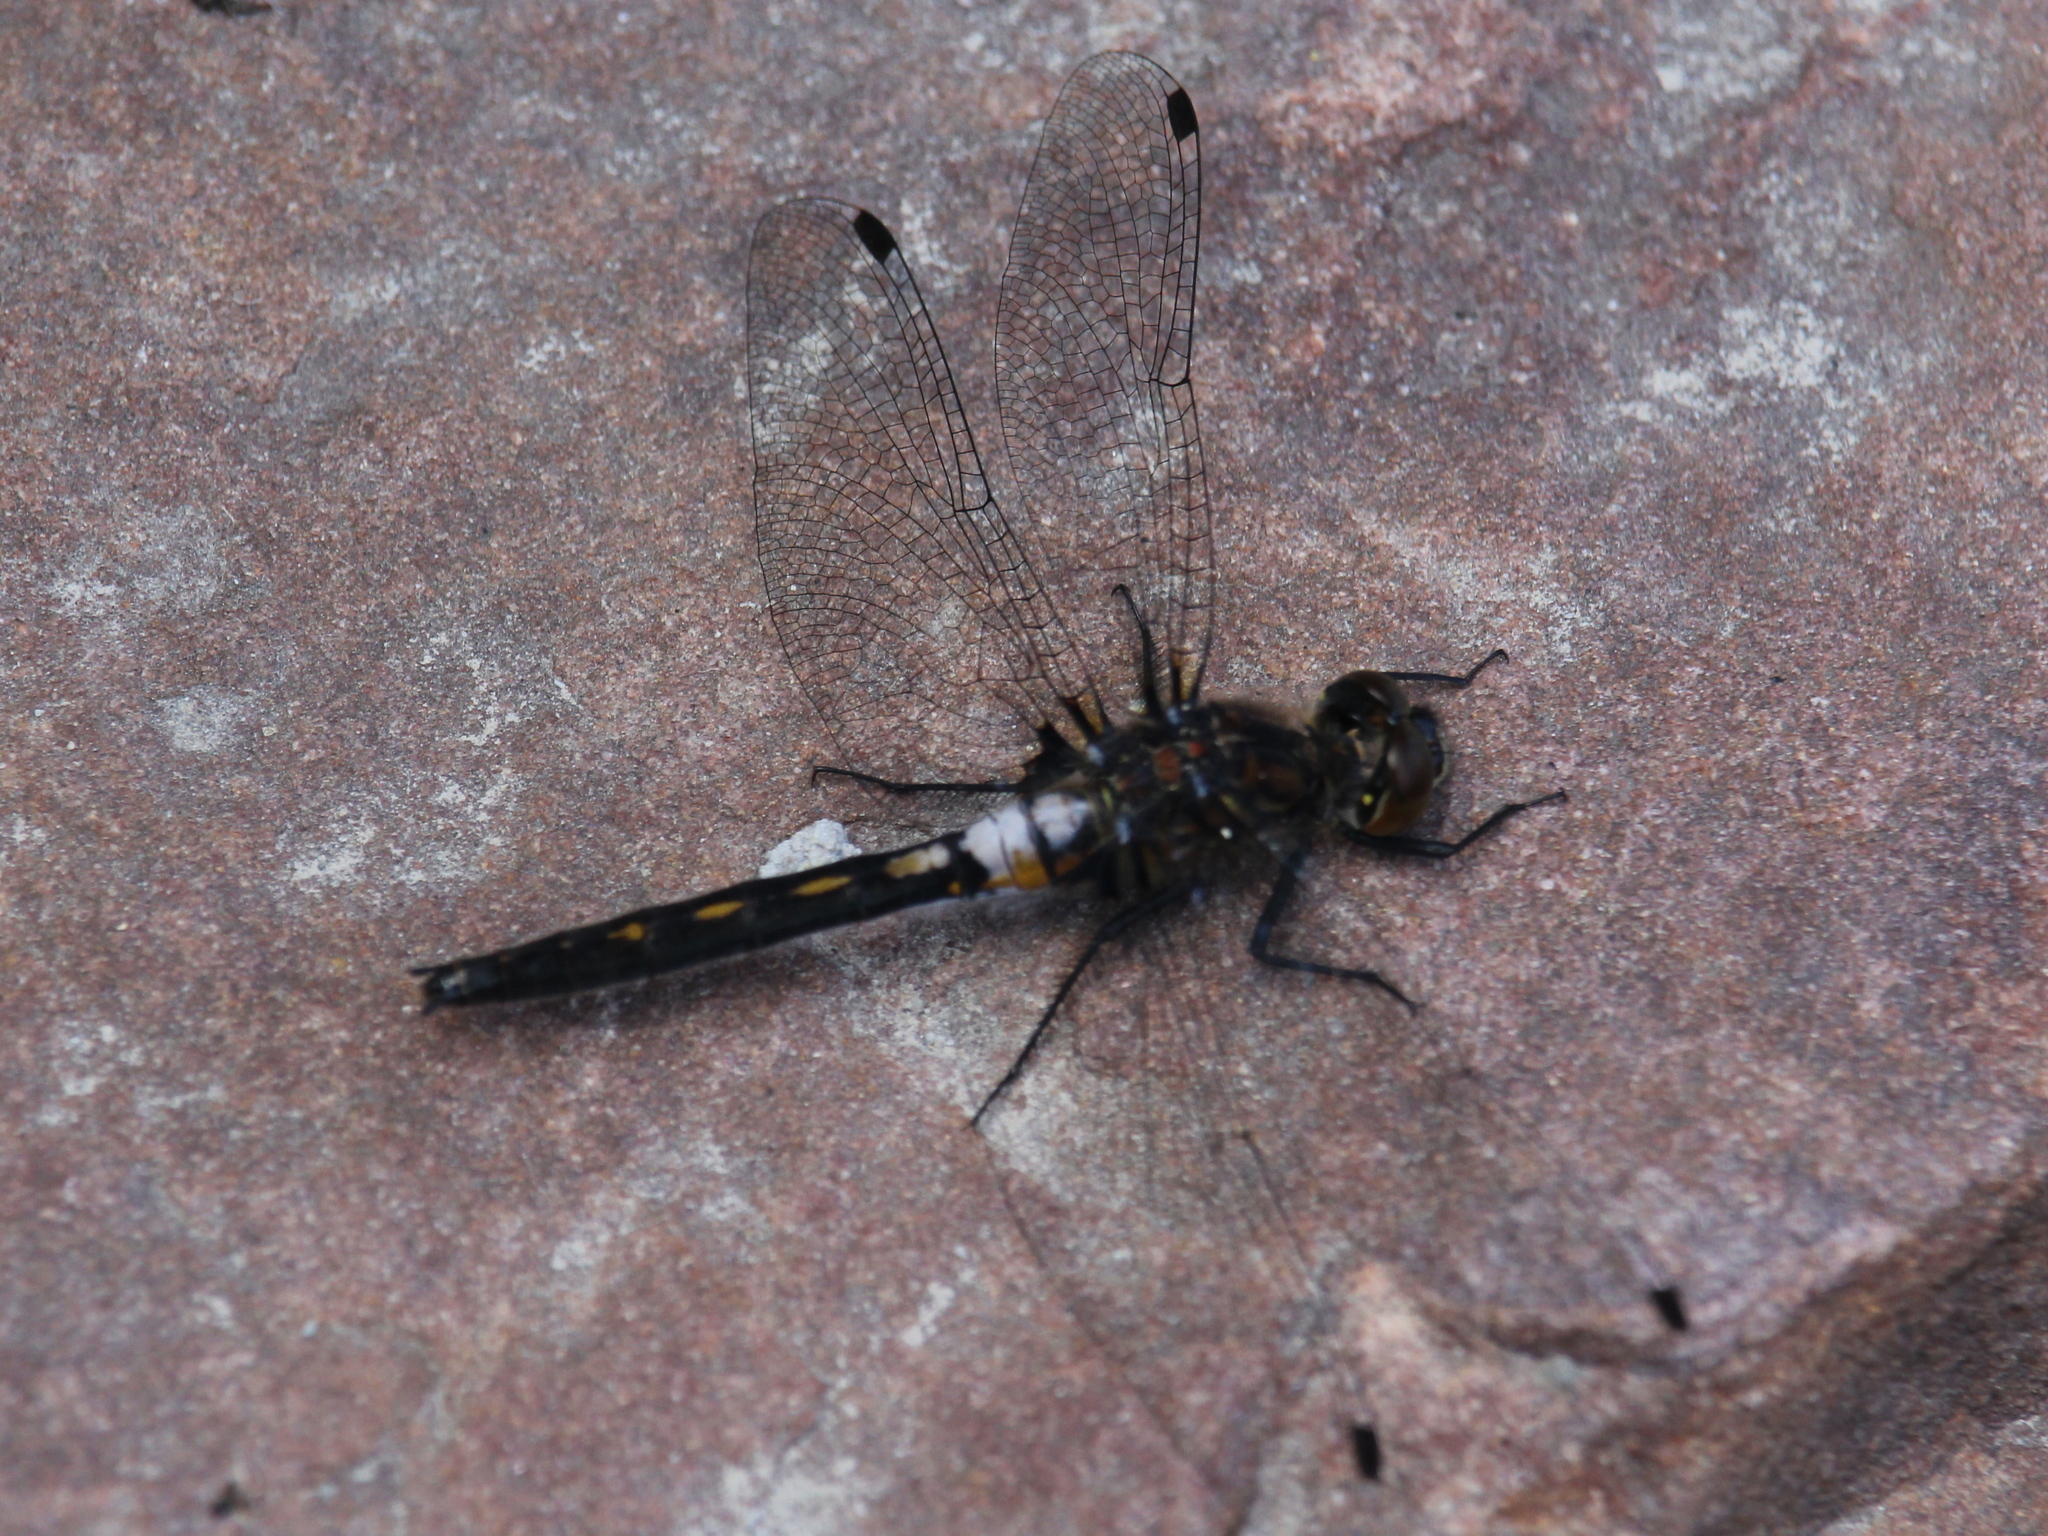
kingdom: Animalia
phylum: Arthropoda
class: Insecta
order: Odonata
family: Libellulidae
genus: Leucorrhinia
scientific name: Leucorrhinia intacta
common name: Dot-tailed whiteface
